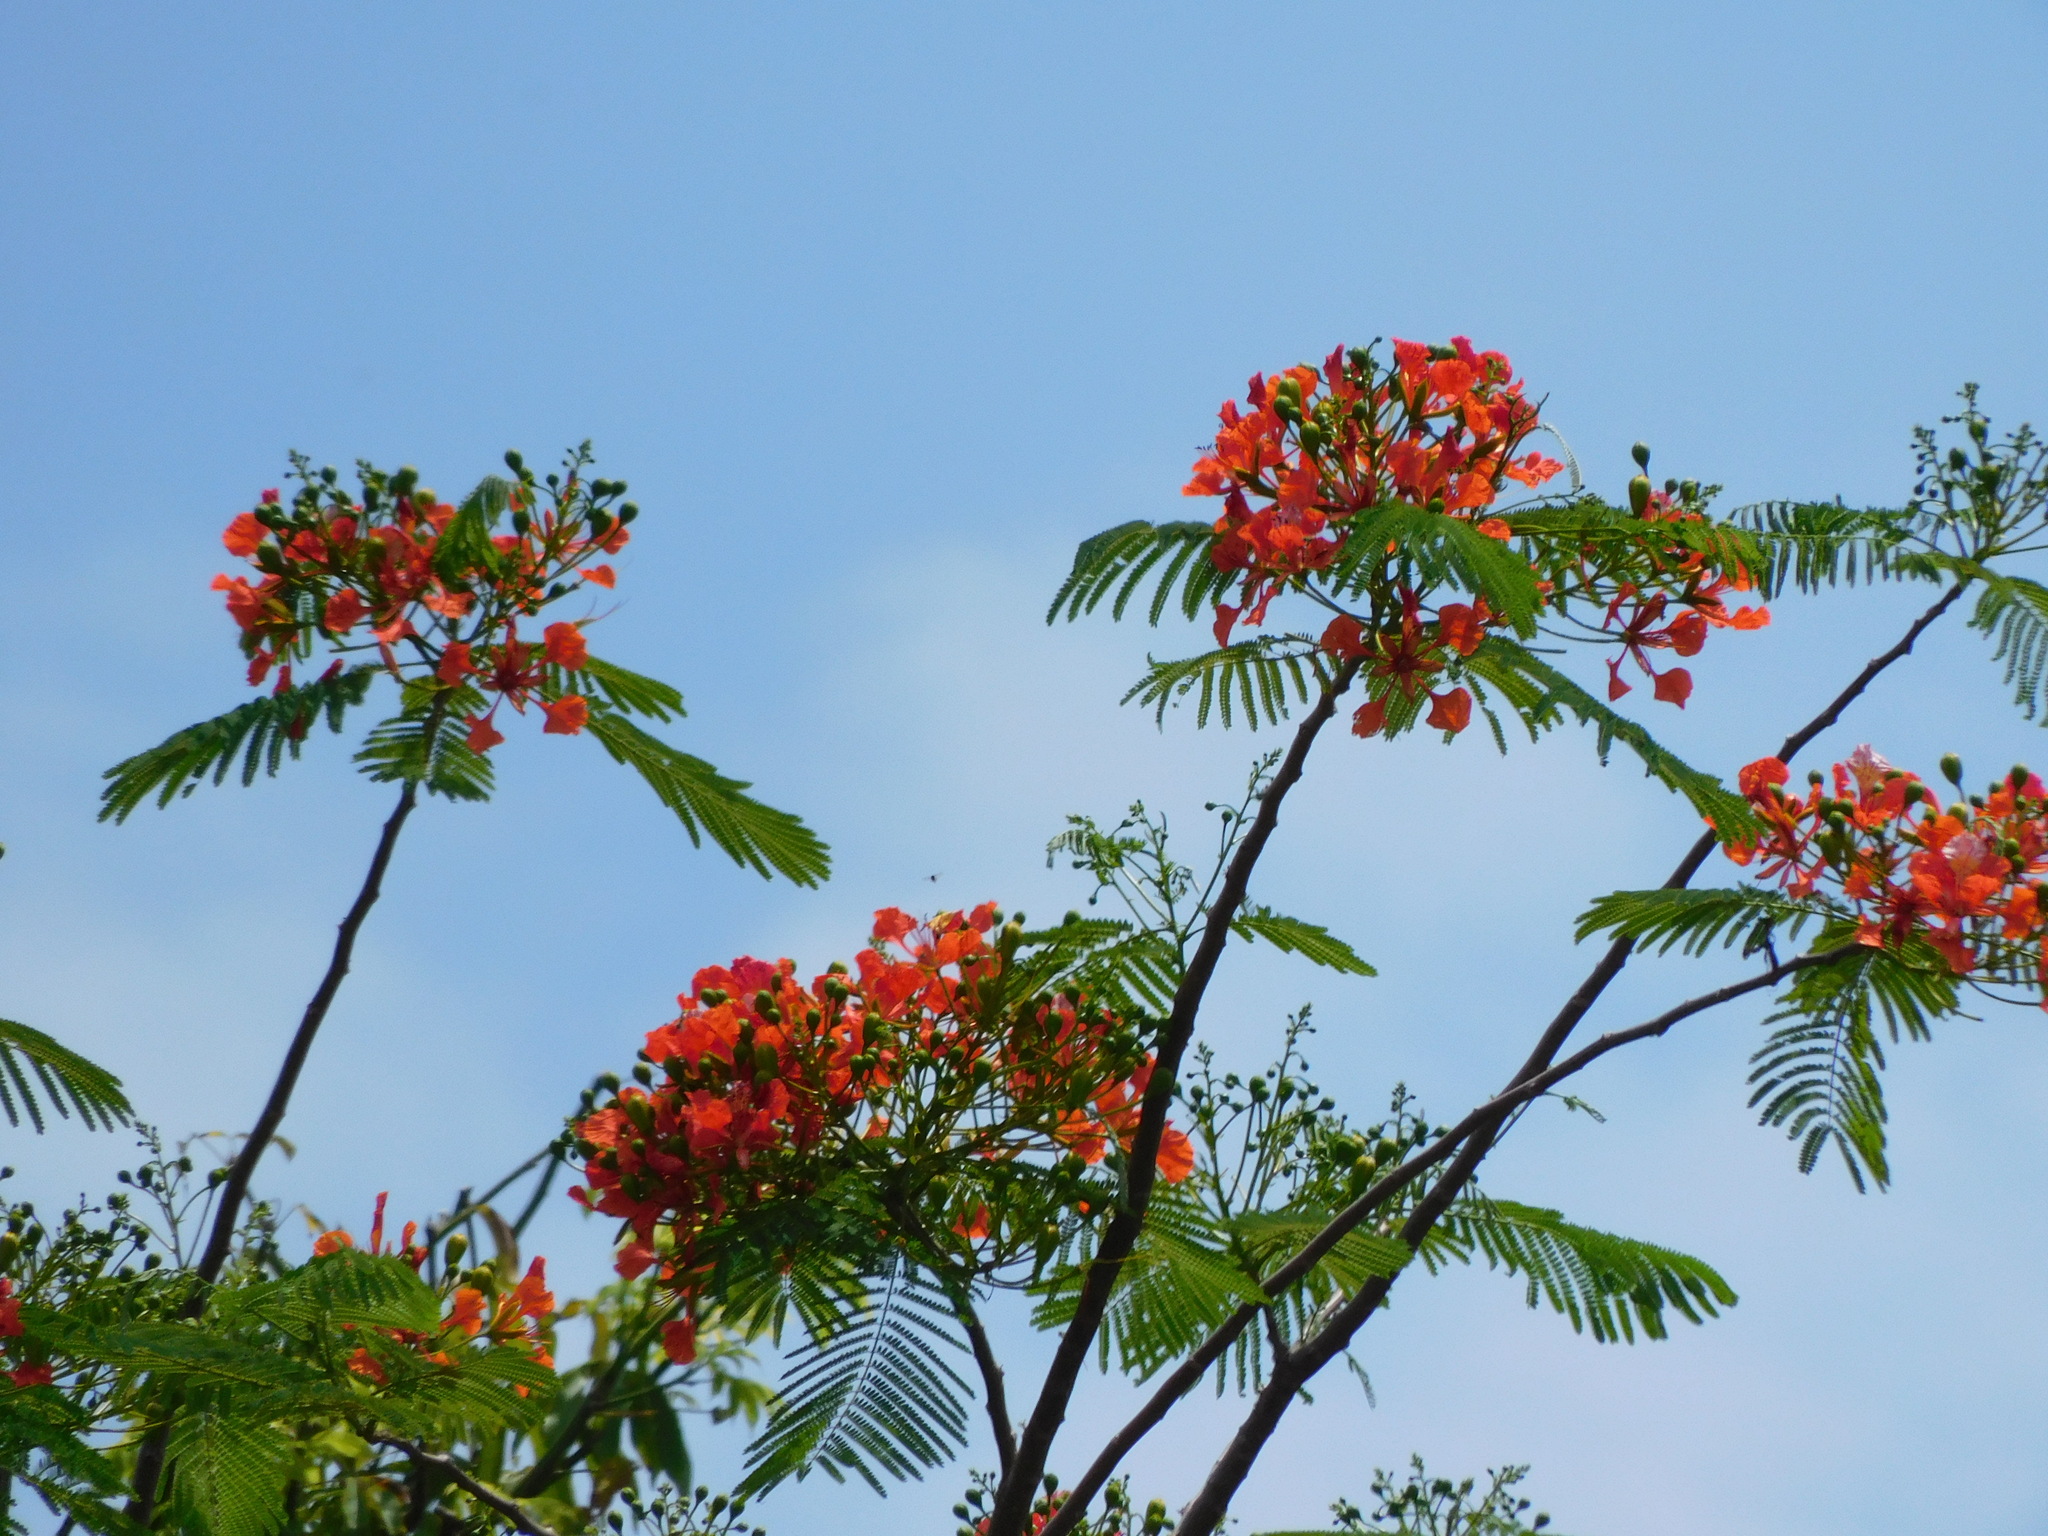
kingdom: Plantae
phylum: Tracheophyta
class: Magnoliopsida
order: Fabales
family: Fabaceae
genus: Delonix
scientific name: Delonix regia
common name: Royal poinciana
